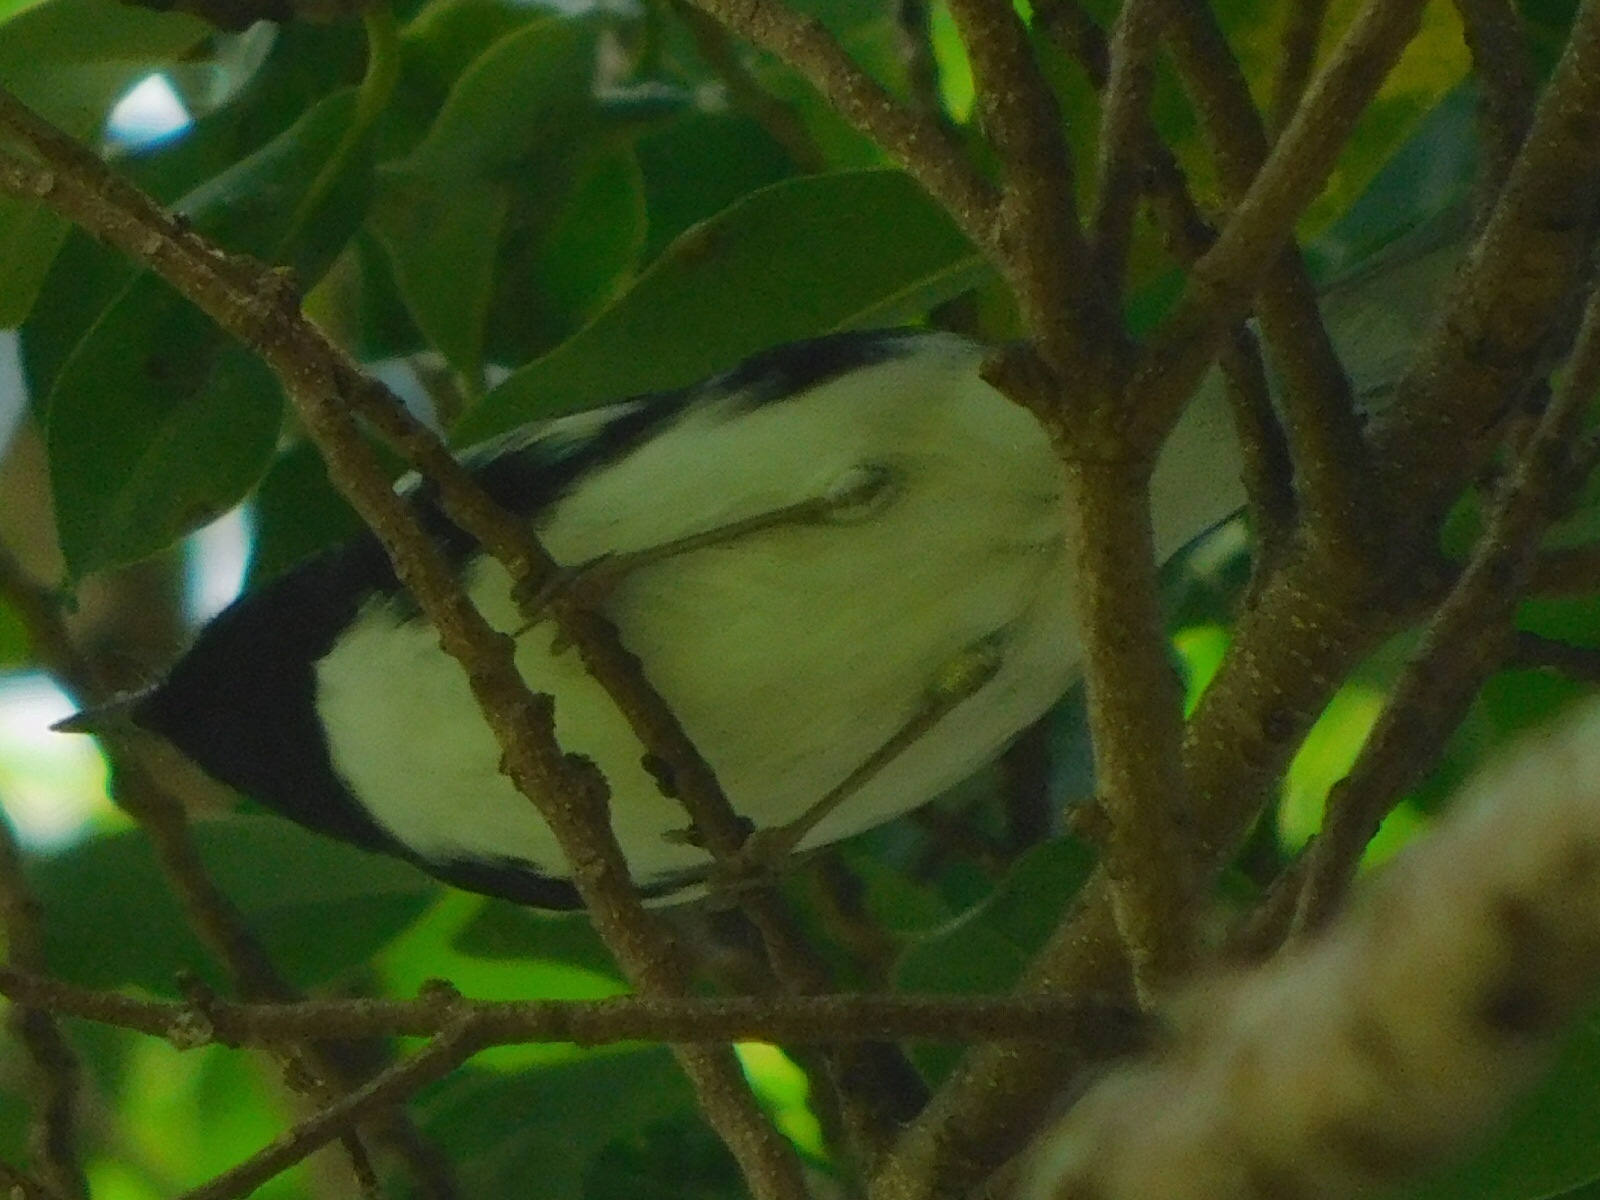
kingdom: Animalia
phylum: Chordata
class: Aves
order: Passeriformes
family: Parulidae
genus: Setophaga
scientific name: Setophaga caerulescens
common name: Black-throated blue warbler
